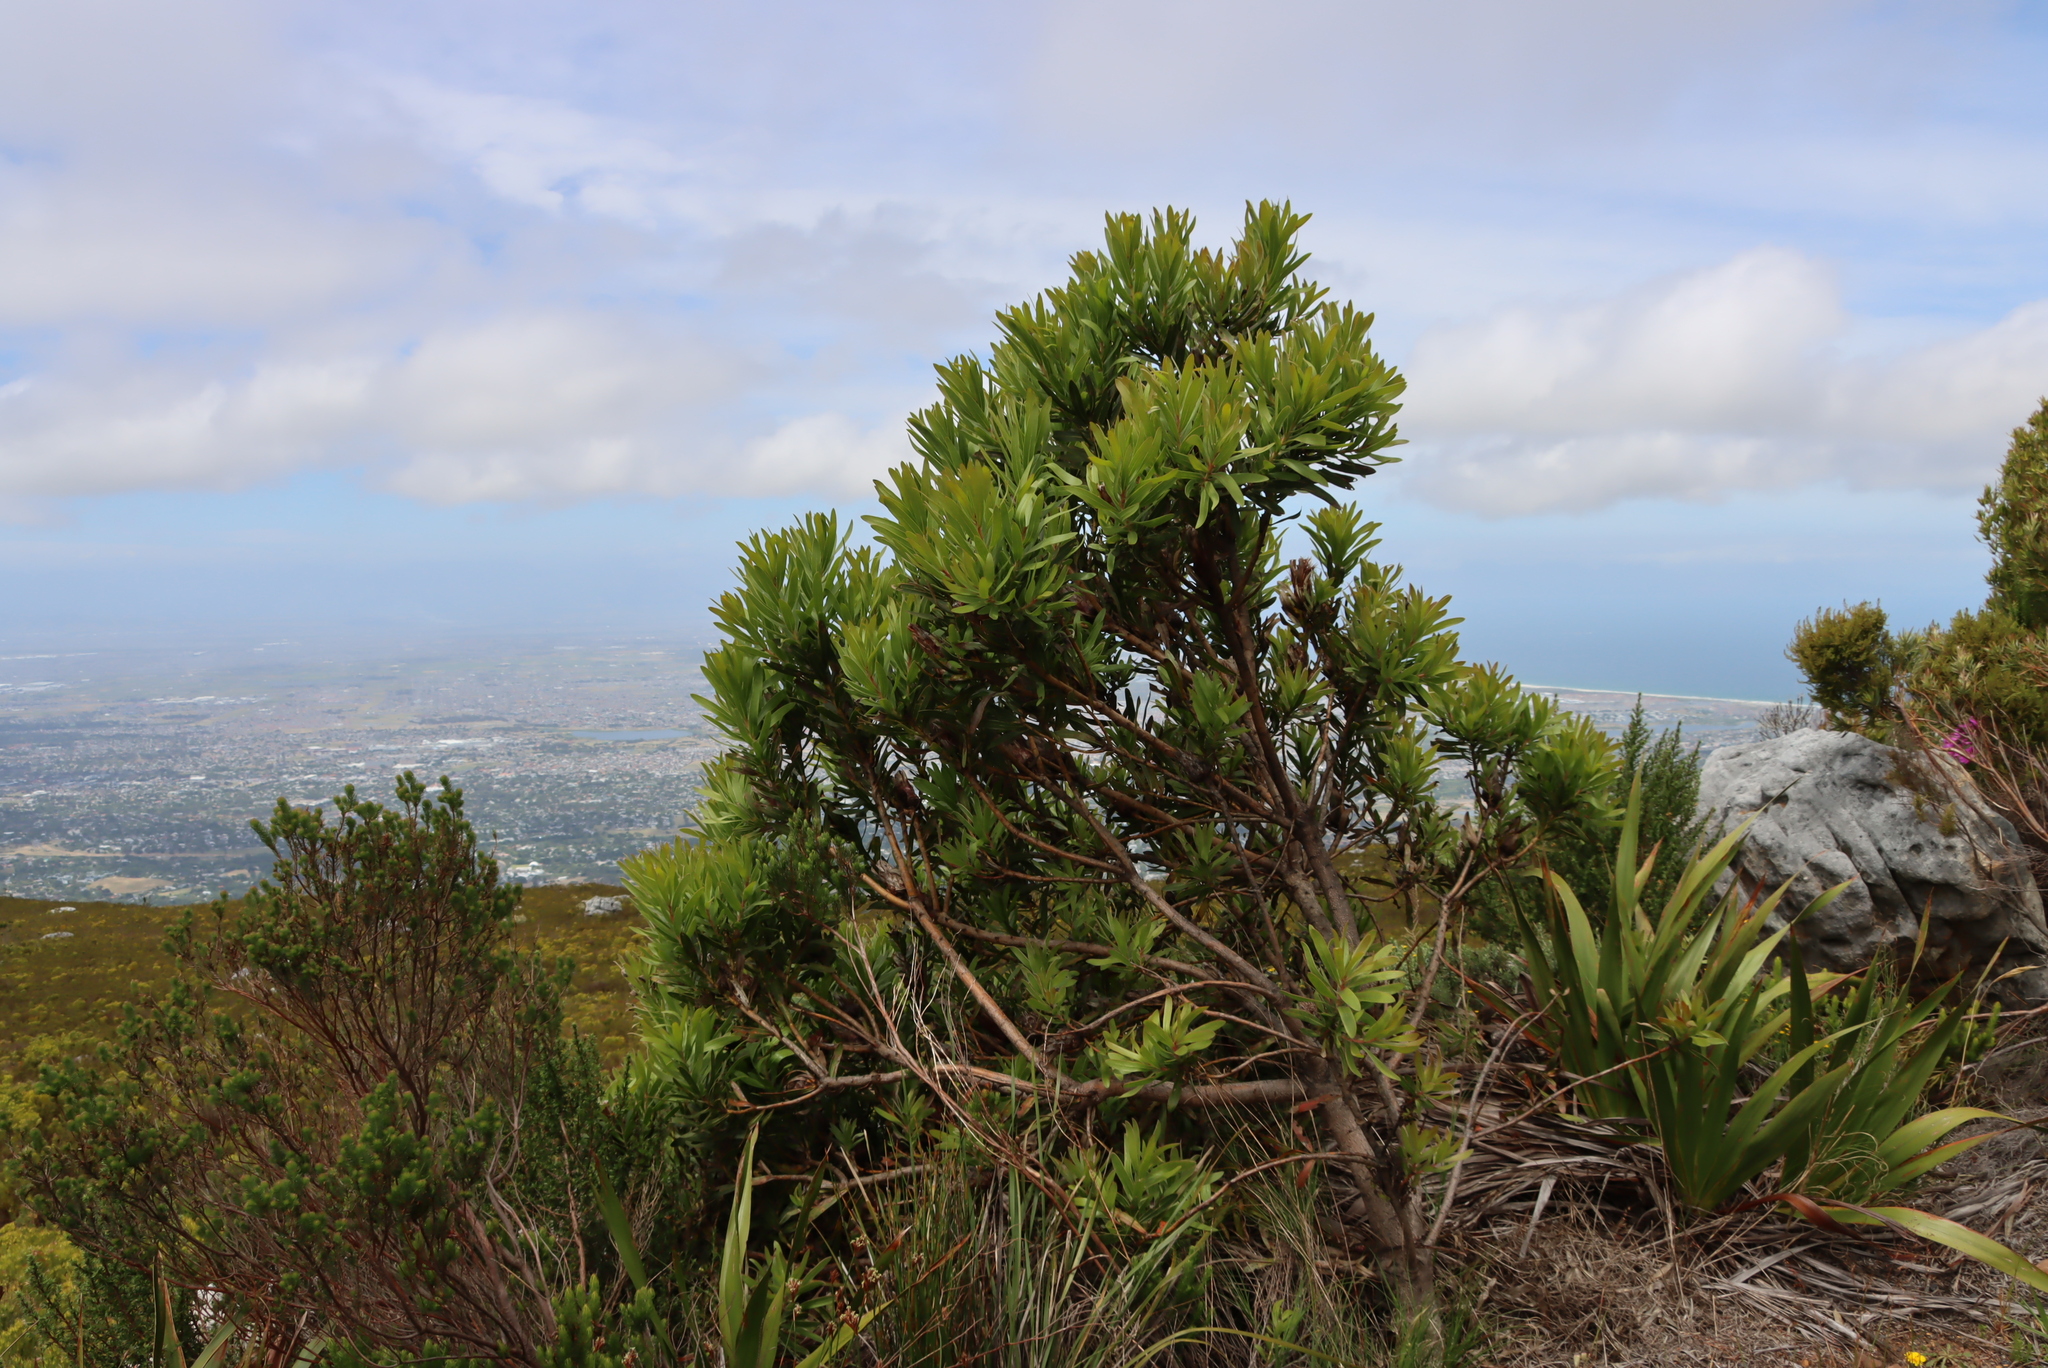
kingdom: Plantae
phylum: Tracheophyta
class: Magnoliopsida
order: Proteales
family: Proteaceae
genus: Protea
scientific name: Protea lepidocarpodendron
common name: Black-bearded protea
